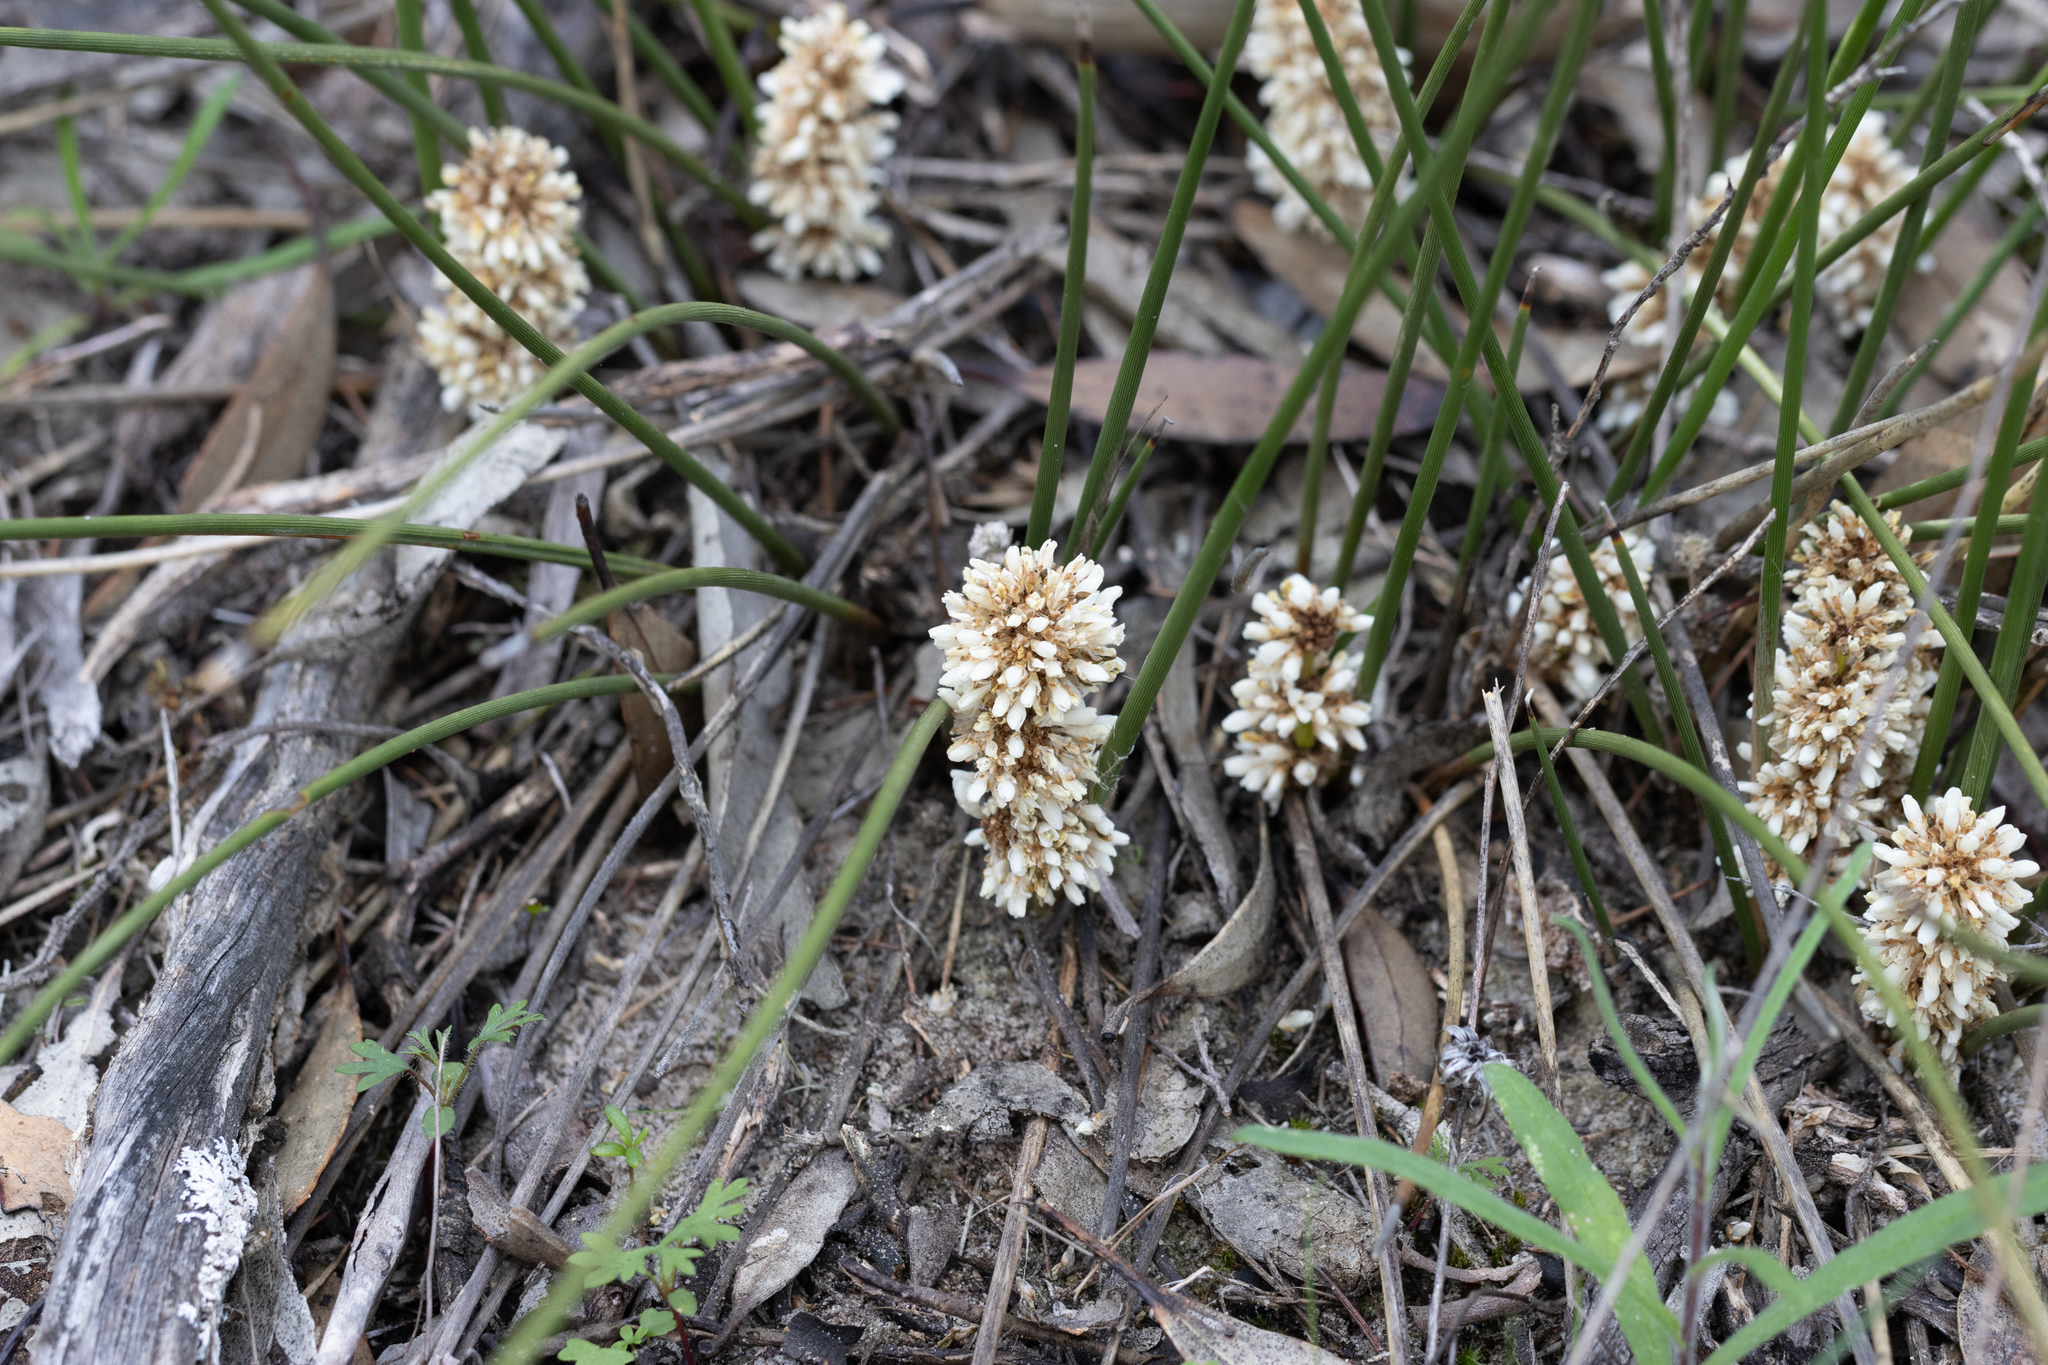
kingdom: Plantae
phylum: Tracheophyta
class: Liliopsida
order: Asparagales
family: Asparagaceae
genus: Lomandra
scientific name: Lomandra juncea
